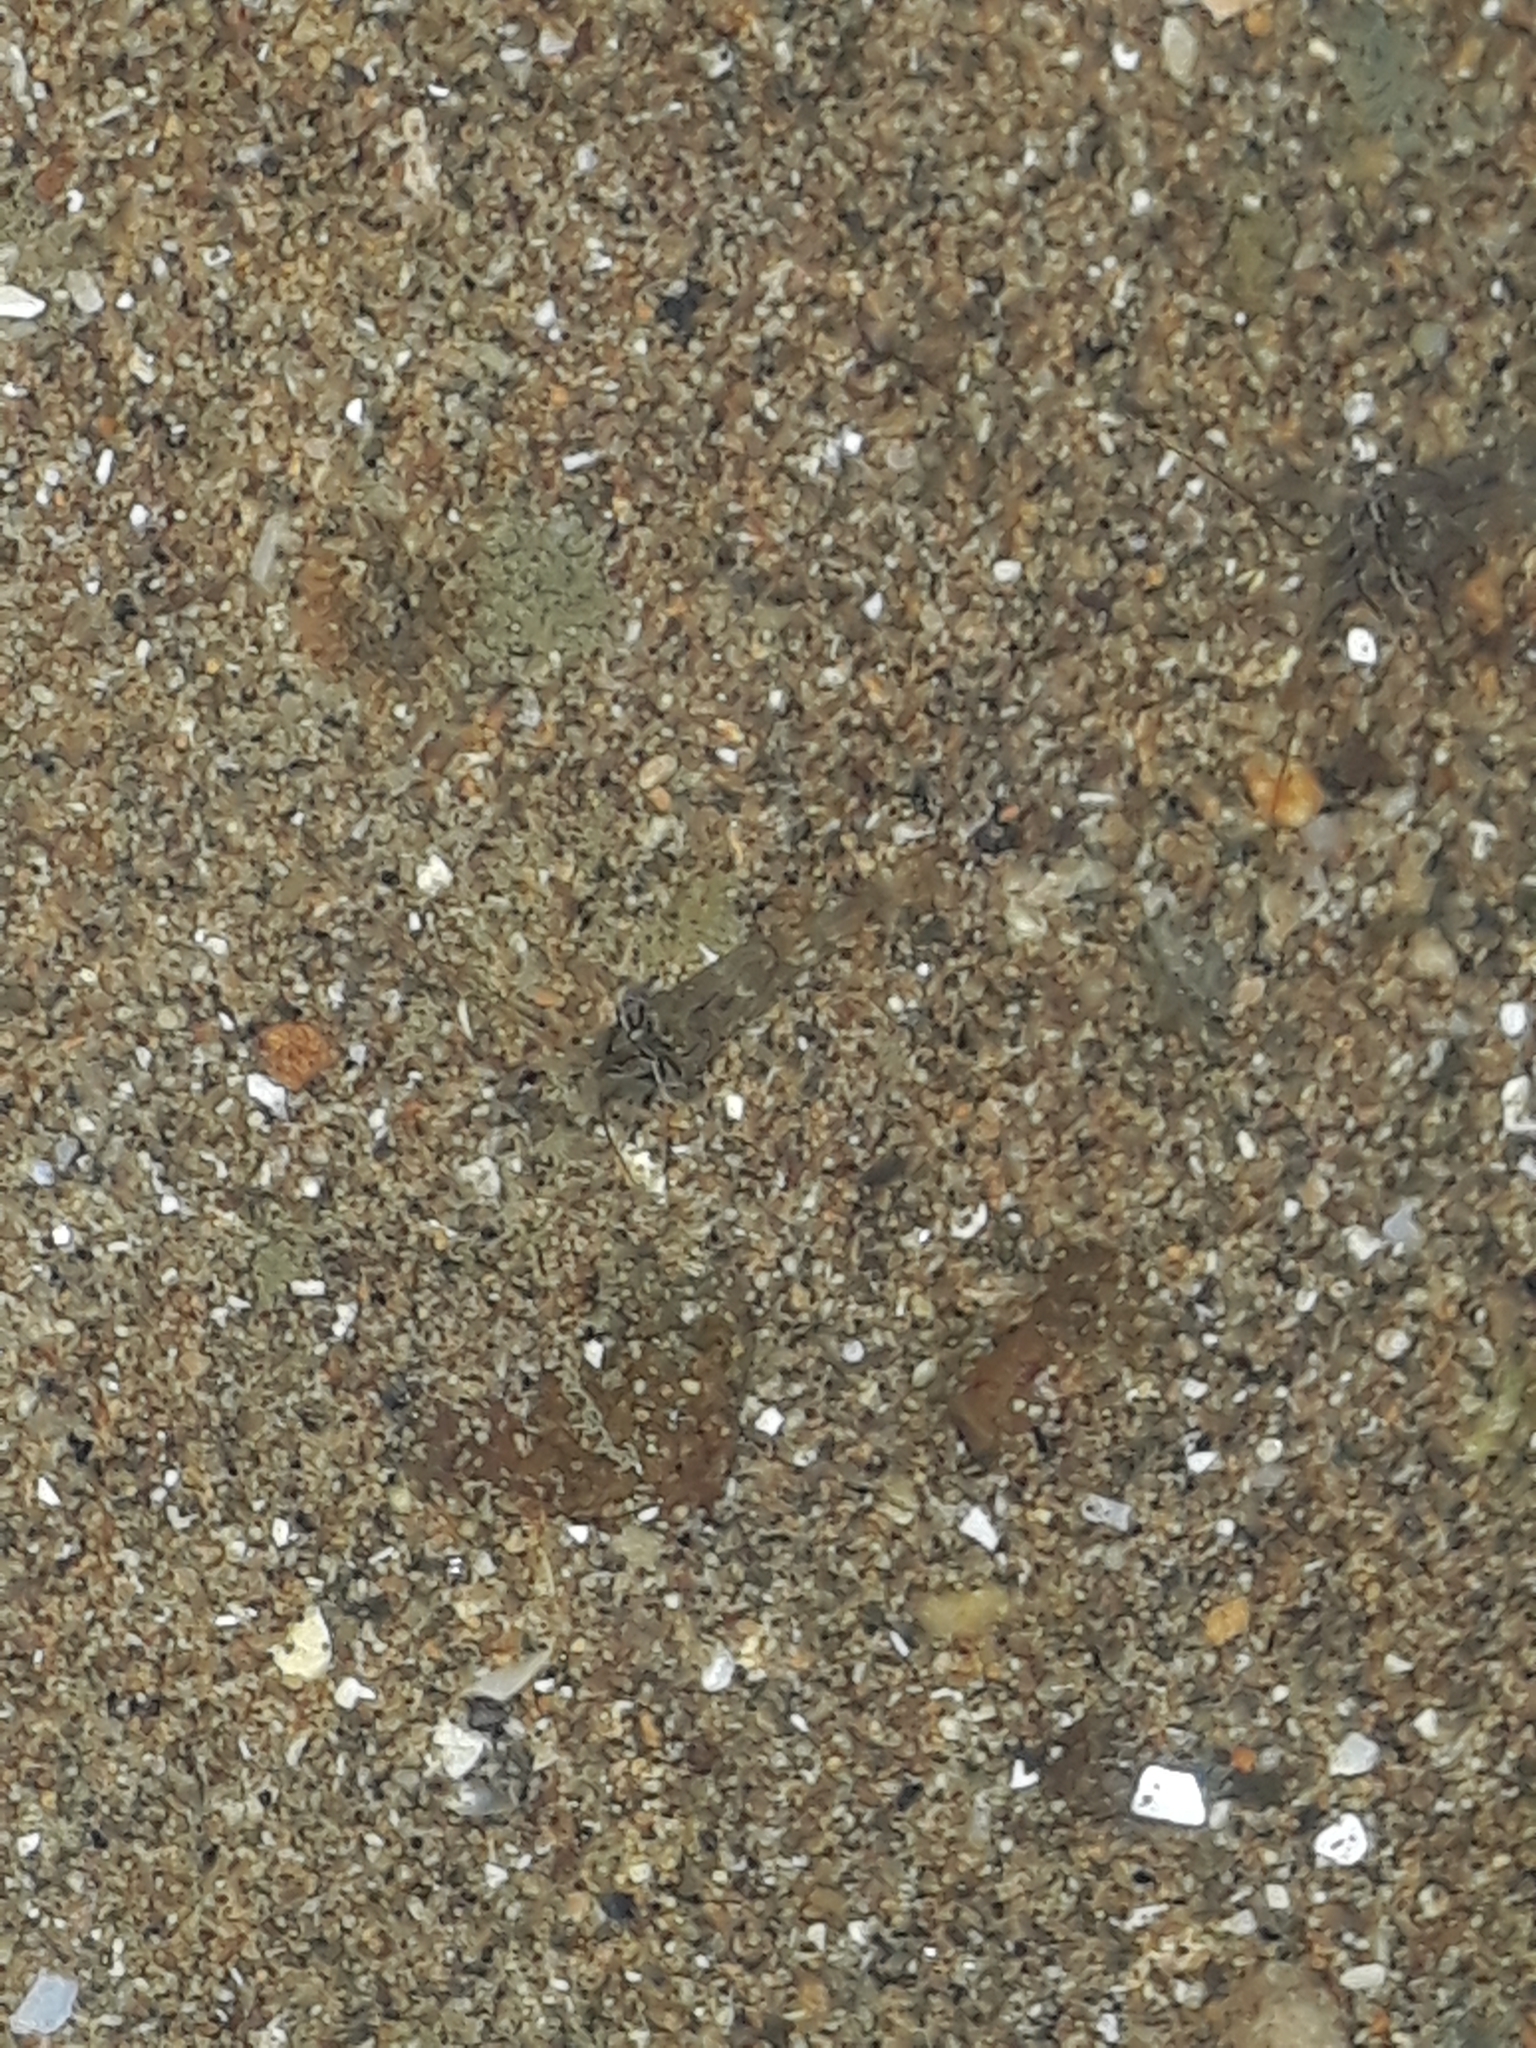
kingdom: Animalia
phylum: Arthropoda
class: Malacostraca
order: Decapoda
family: Palaemonidae
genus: Palaemon
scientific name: Palaemon affinis
